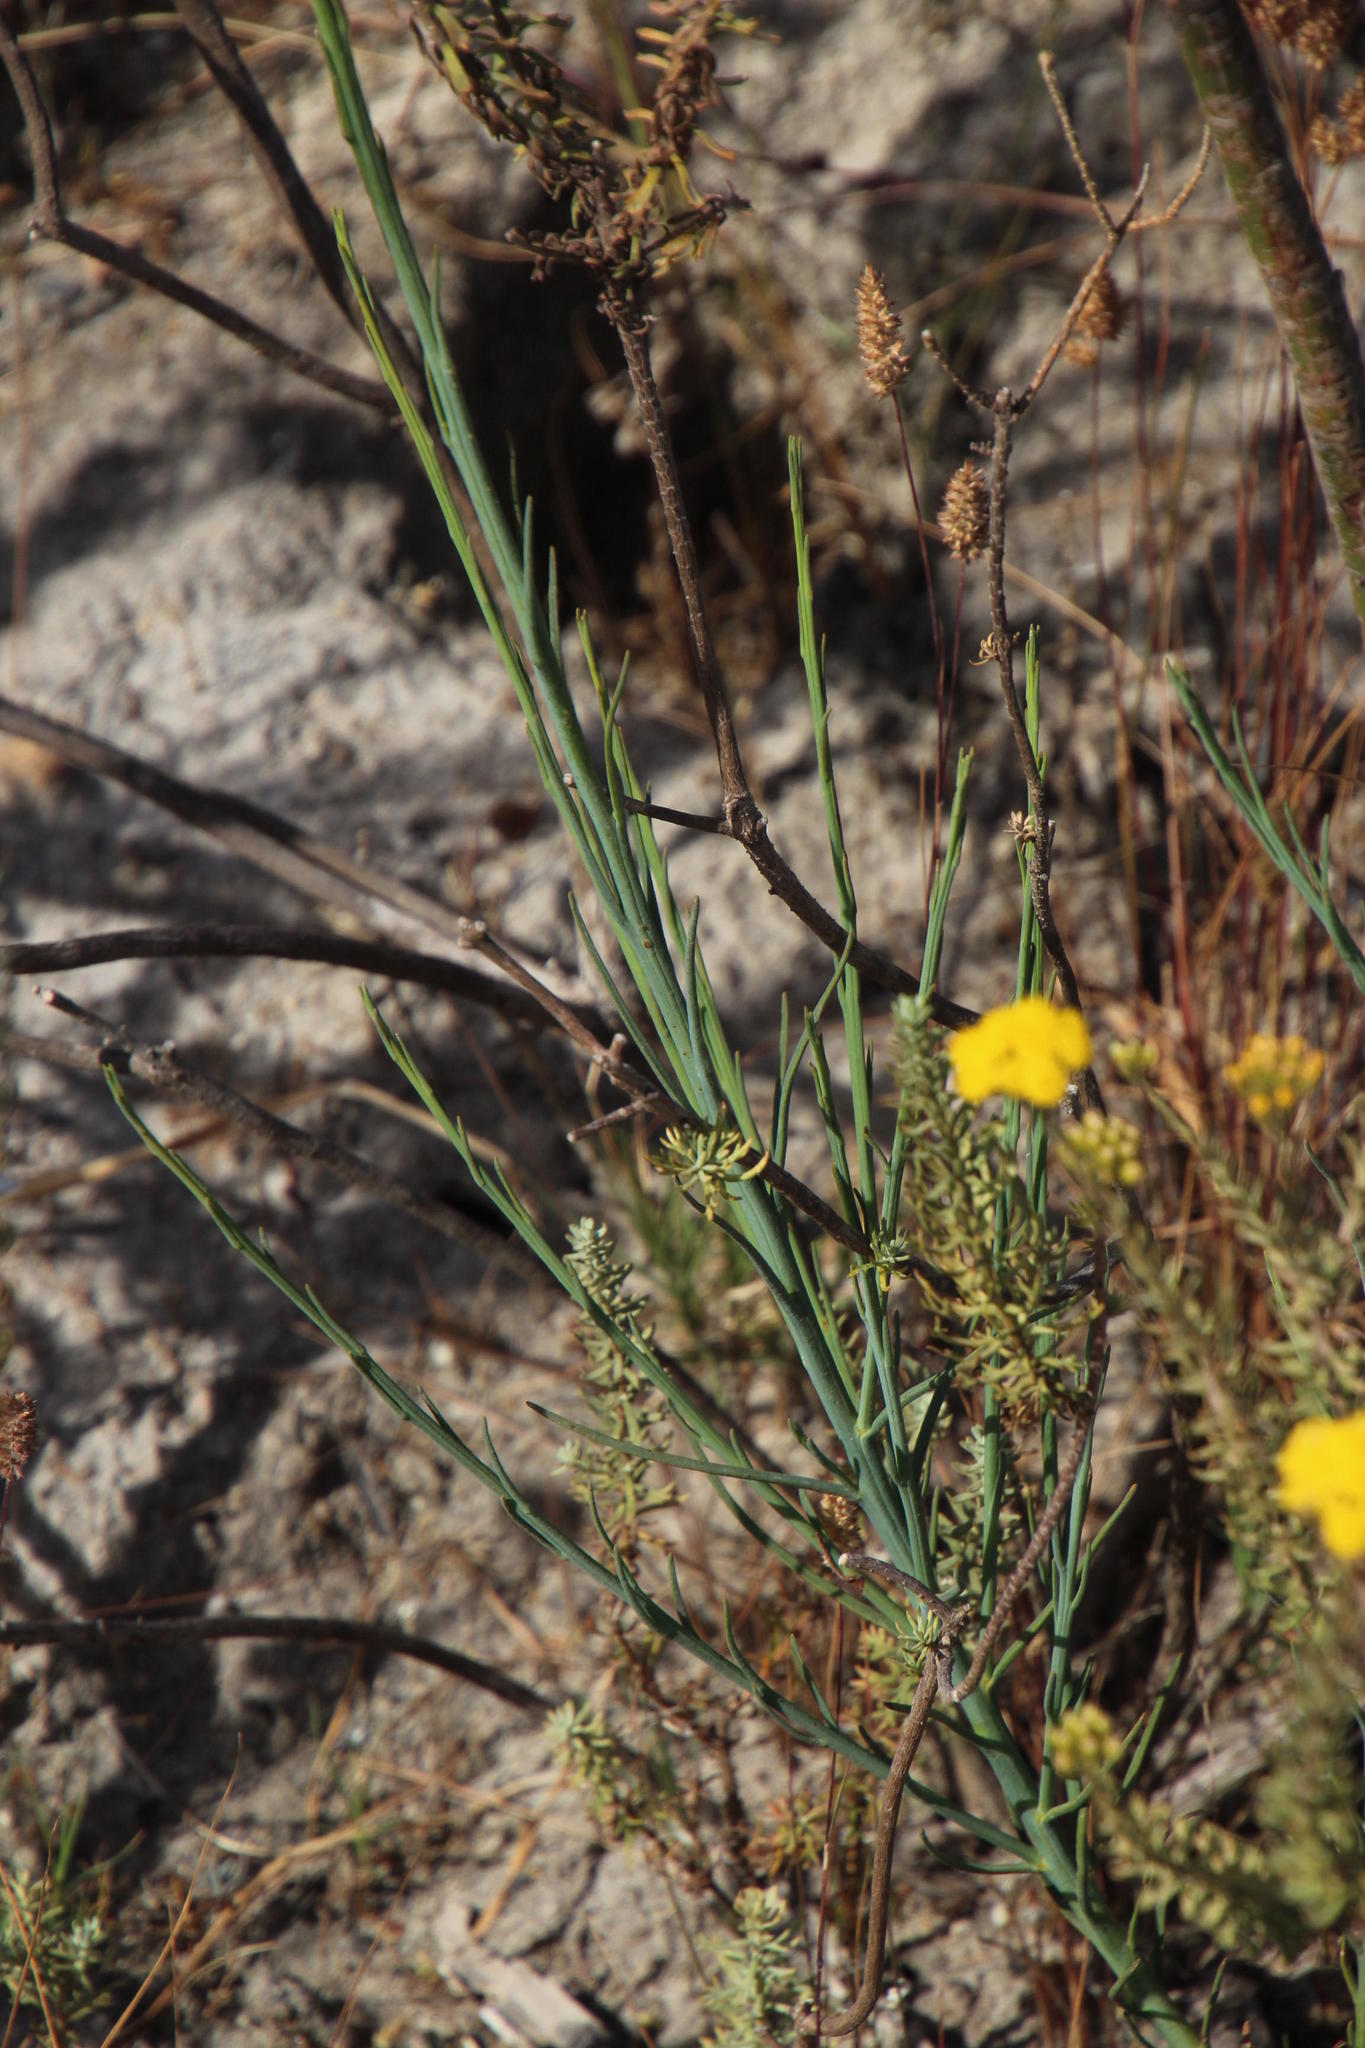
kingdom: Plantae
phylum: Tracheophyta
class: Magnoliopsida
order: Asterales
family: Asteraceae
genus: Athanasia
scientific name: Athanasia trifurcata
